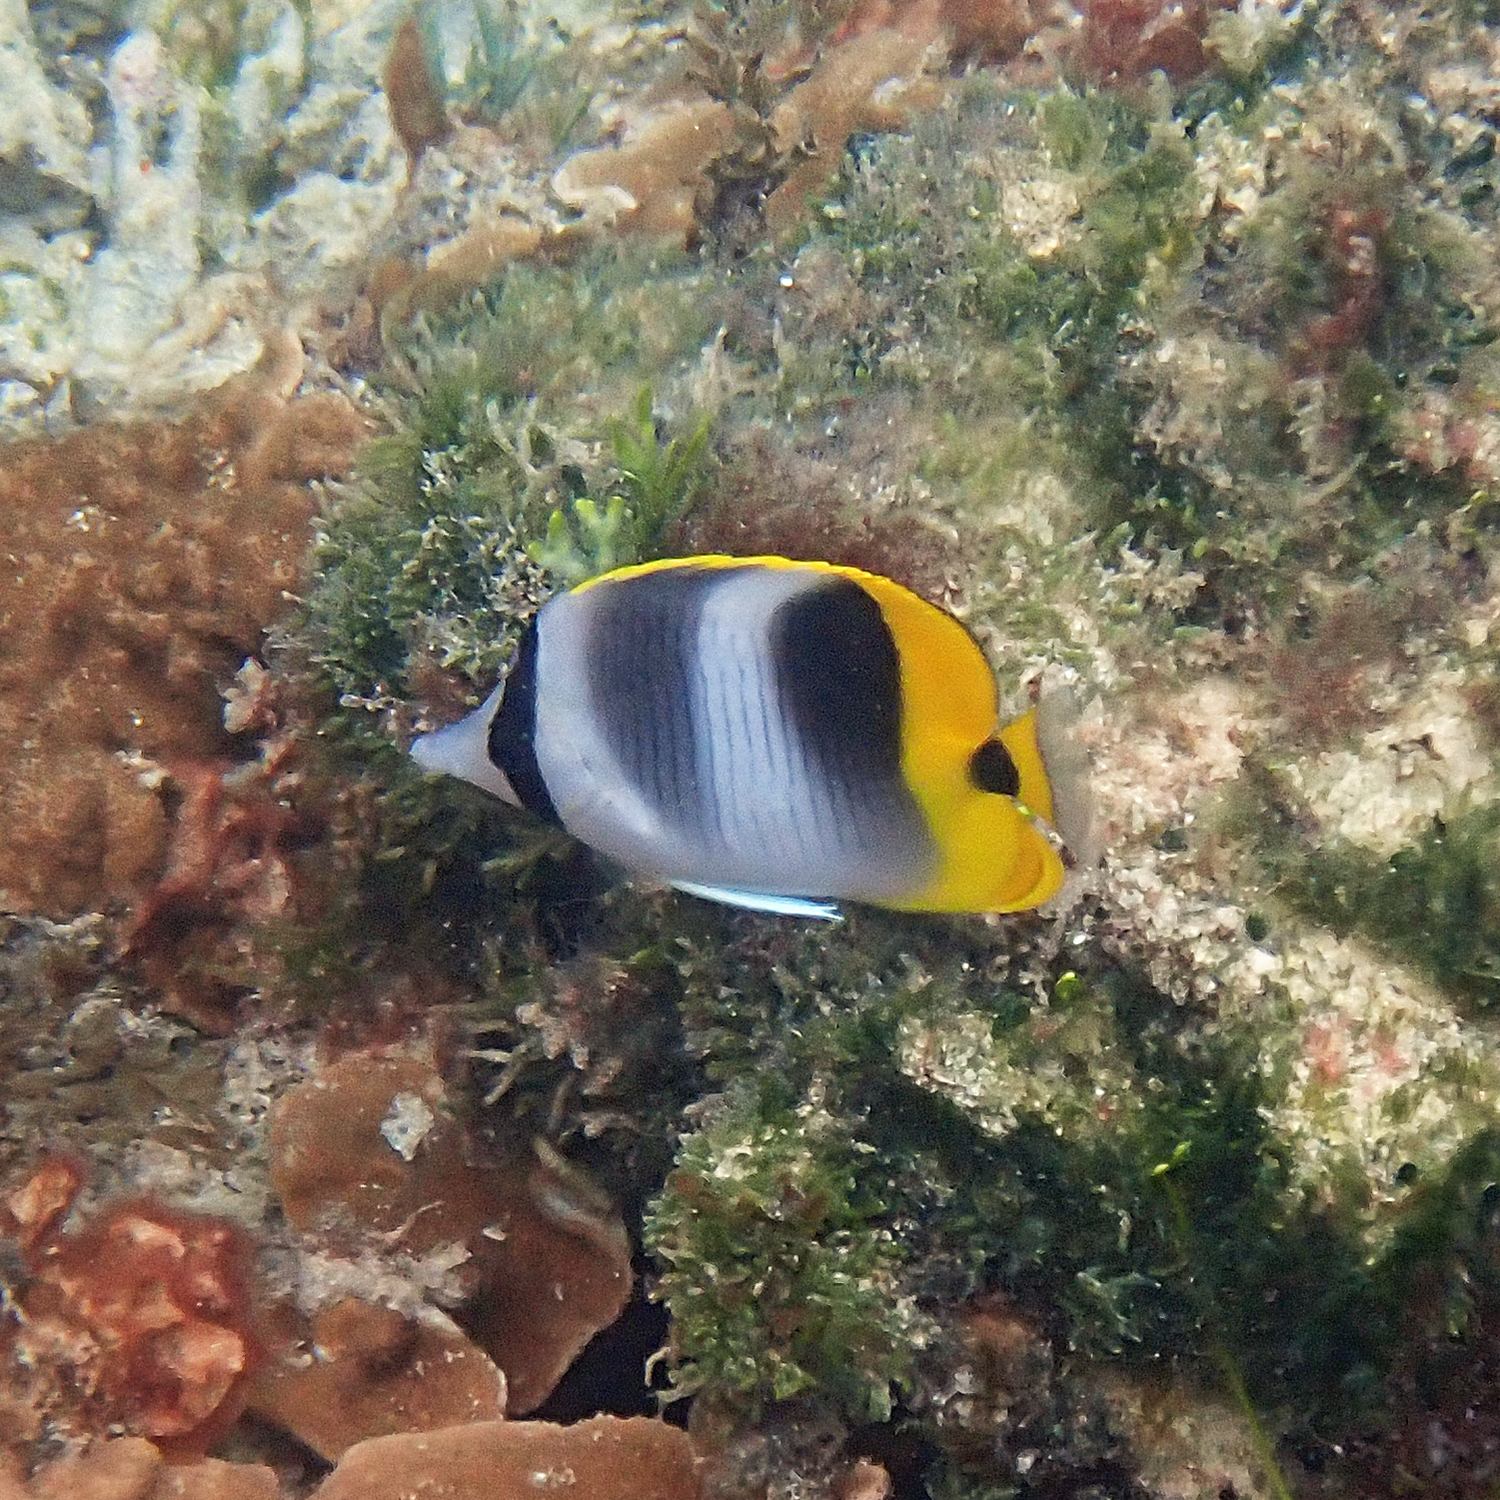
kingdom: Animalia
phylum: Chordata
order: Perciformes
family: Chaetodontidae
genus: Chaetodon
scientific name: Chaetodon ulietensis
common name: Pacific double-saddle butterflyfish
